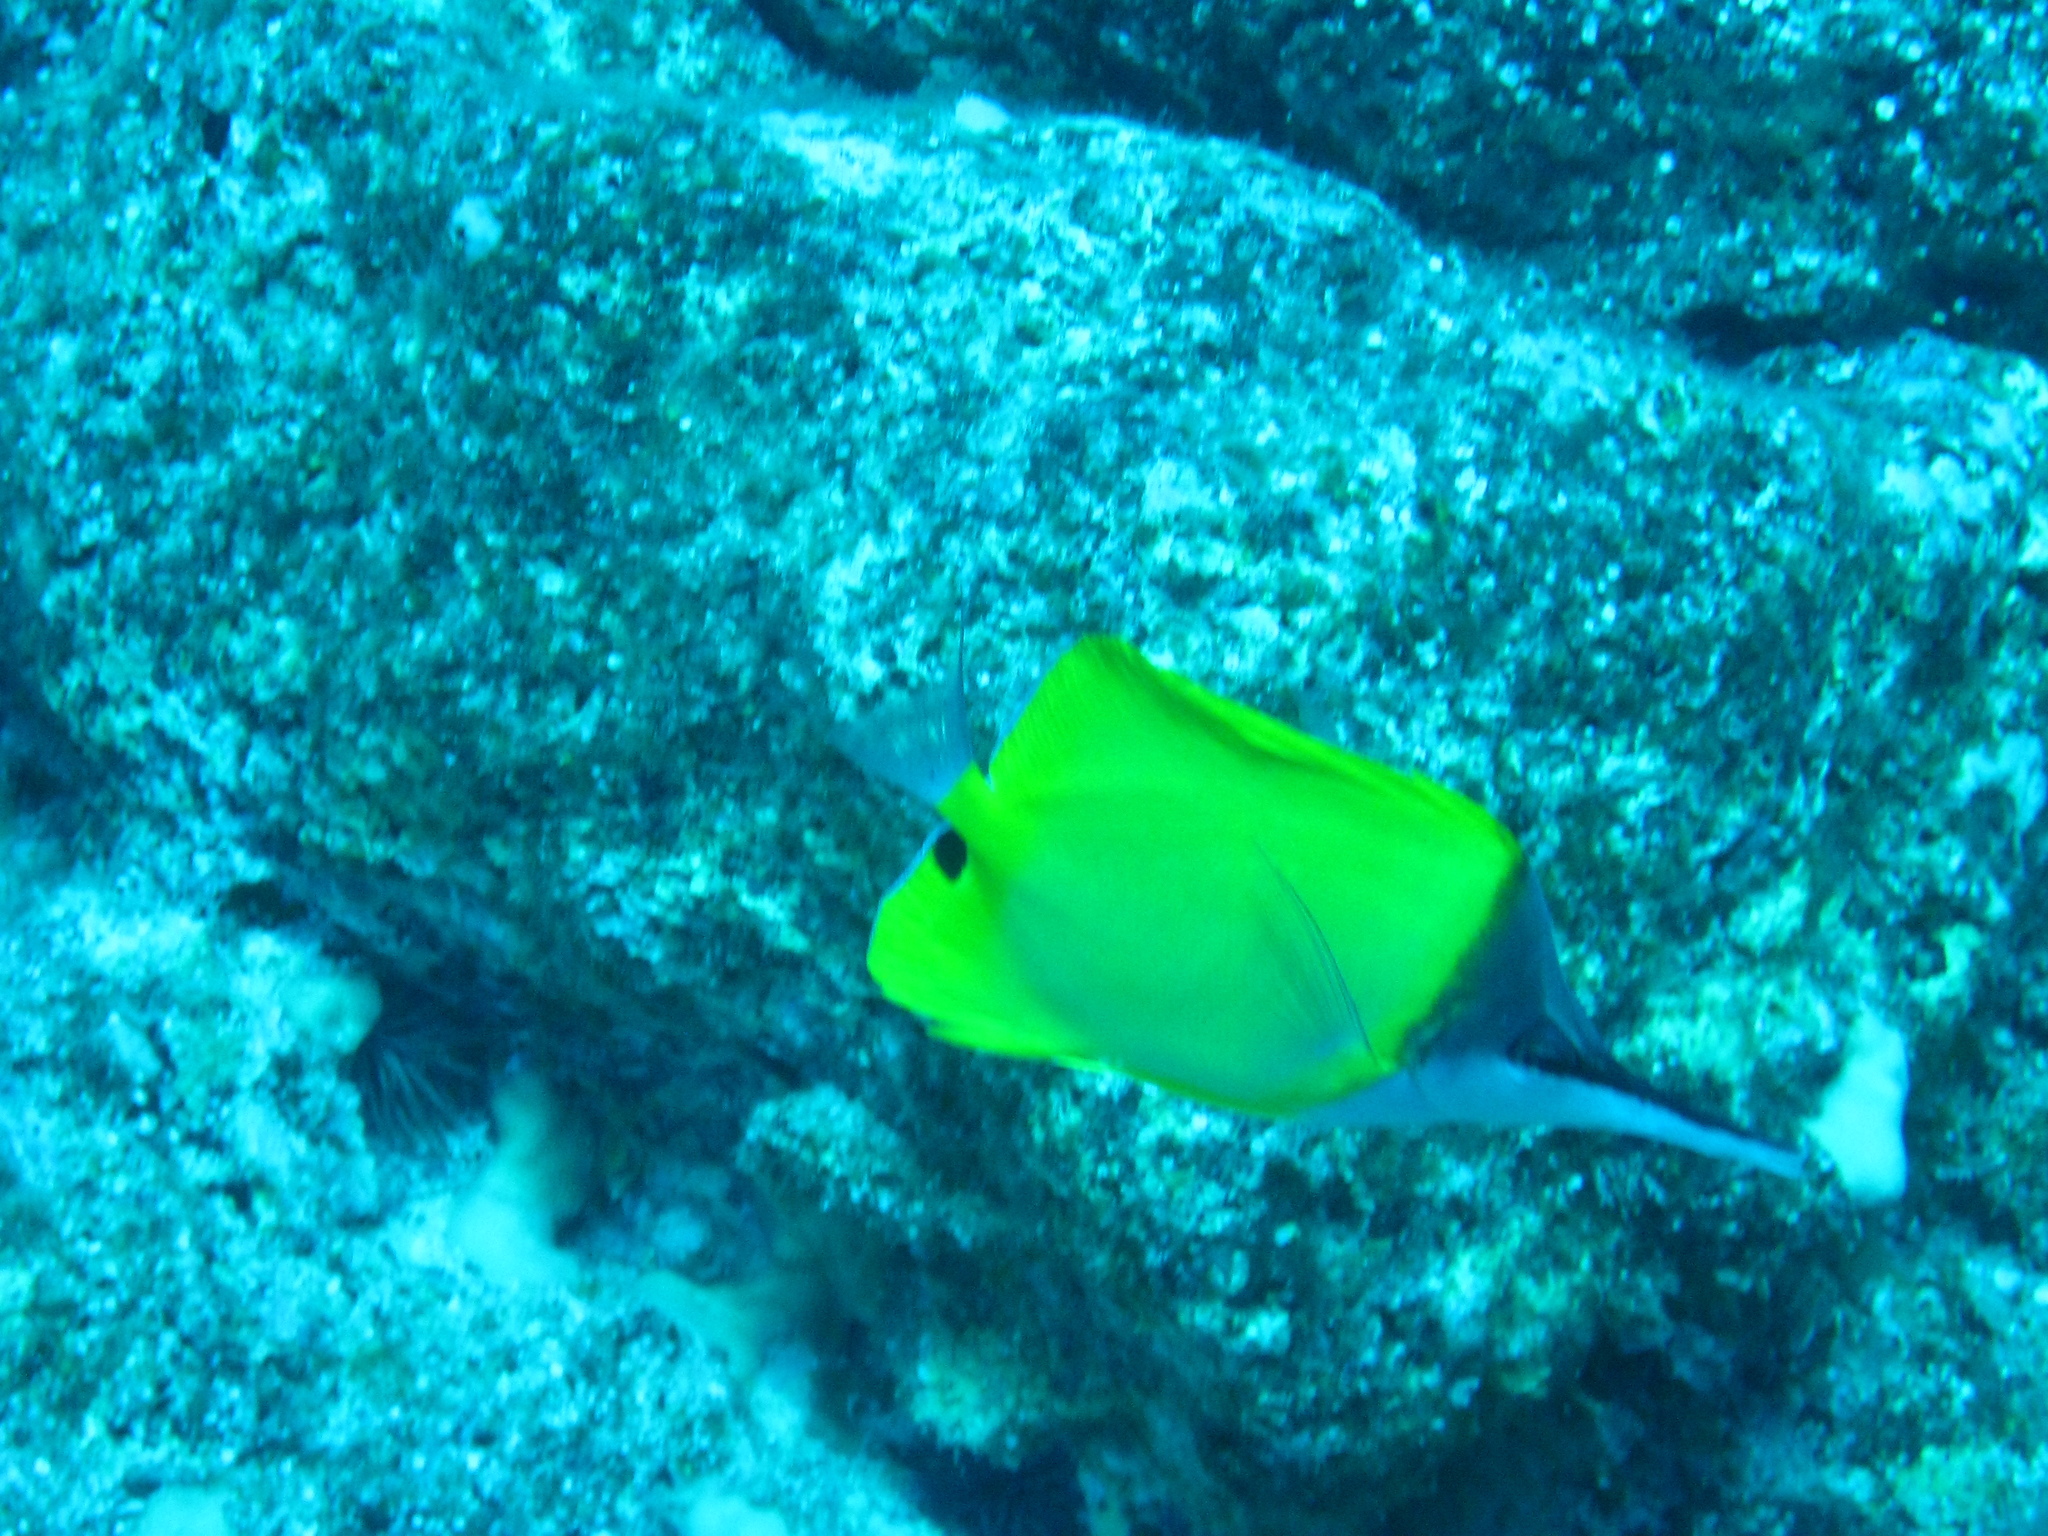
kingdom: Animalia
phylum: Chordata
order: Perciformes
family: Chaetodontidae
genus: Forcipiger
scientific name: Forcipiger flavissimus
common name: Forcepsfish
